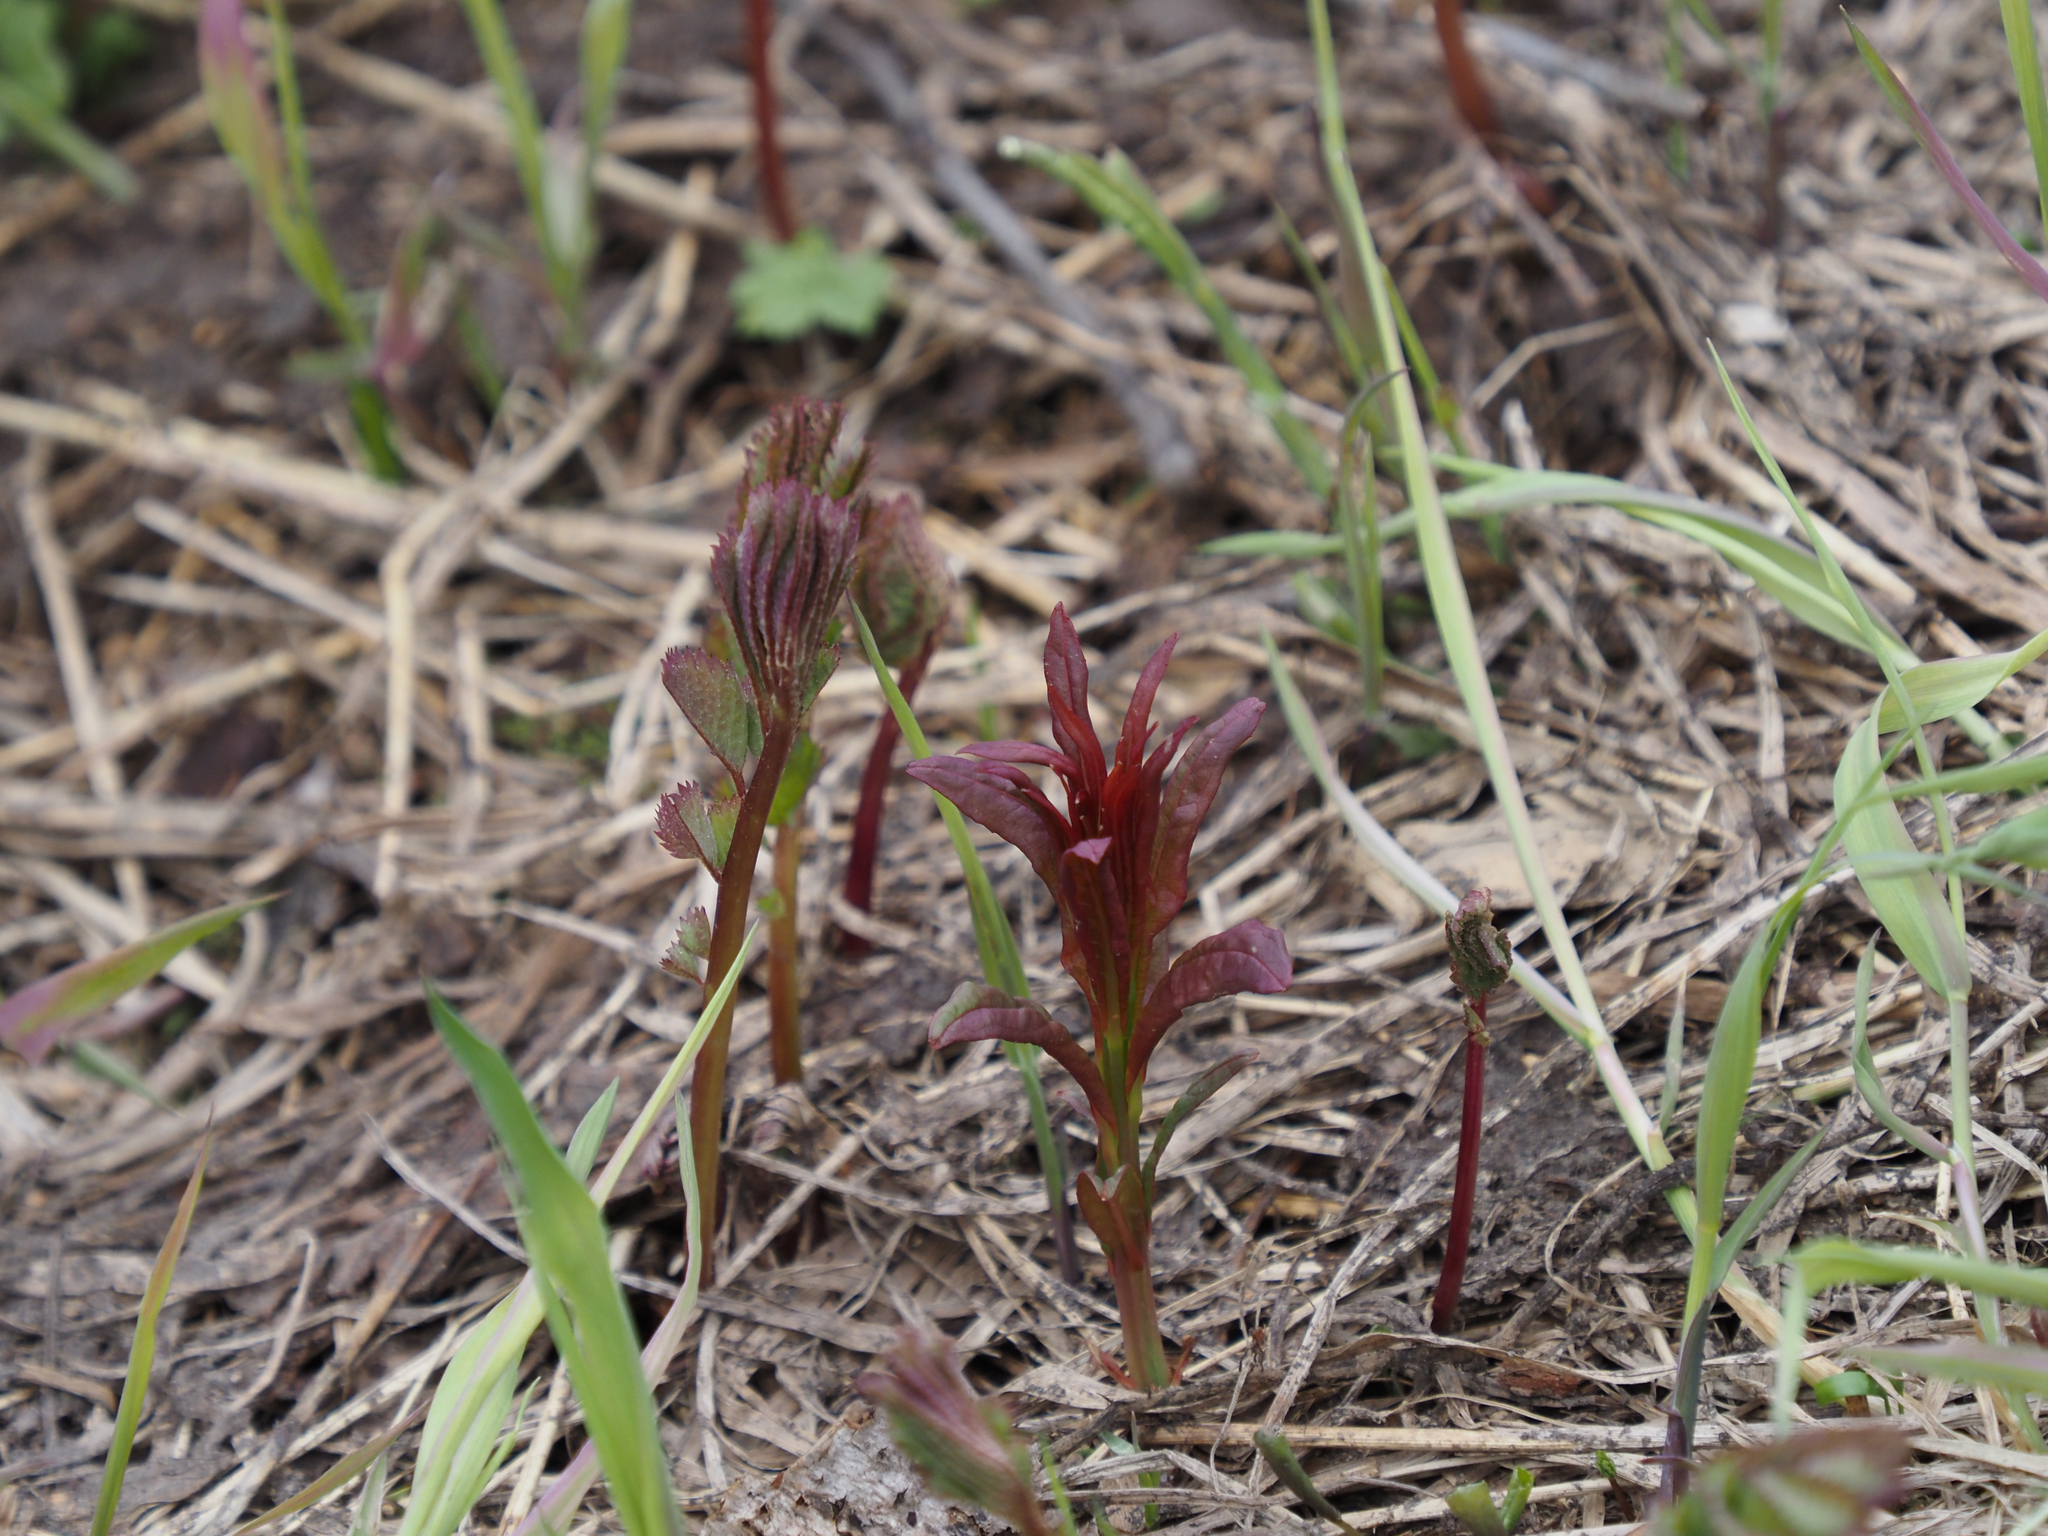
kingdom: Plantae
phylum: Tracheophyta
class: Magnoliopsida
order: Myrtales
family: Onagraceae
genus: Chamaenerion
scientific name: Chamaenerion angustifolium
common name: Fireweed
